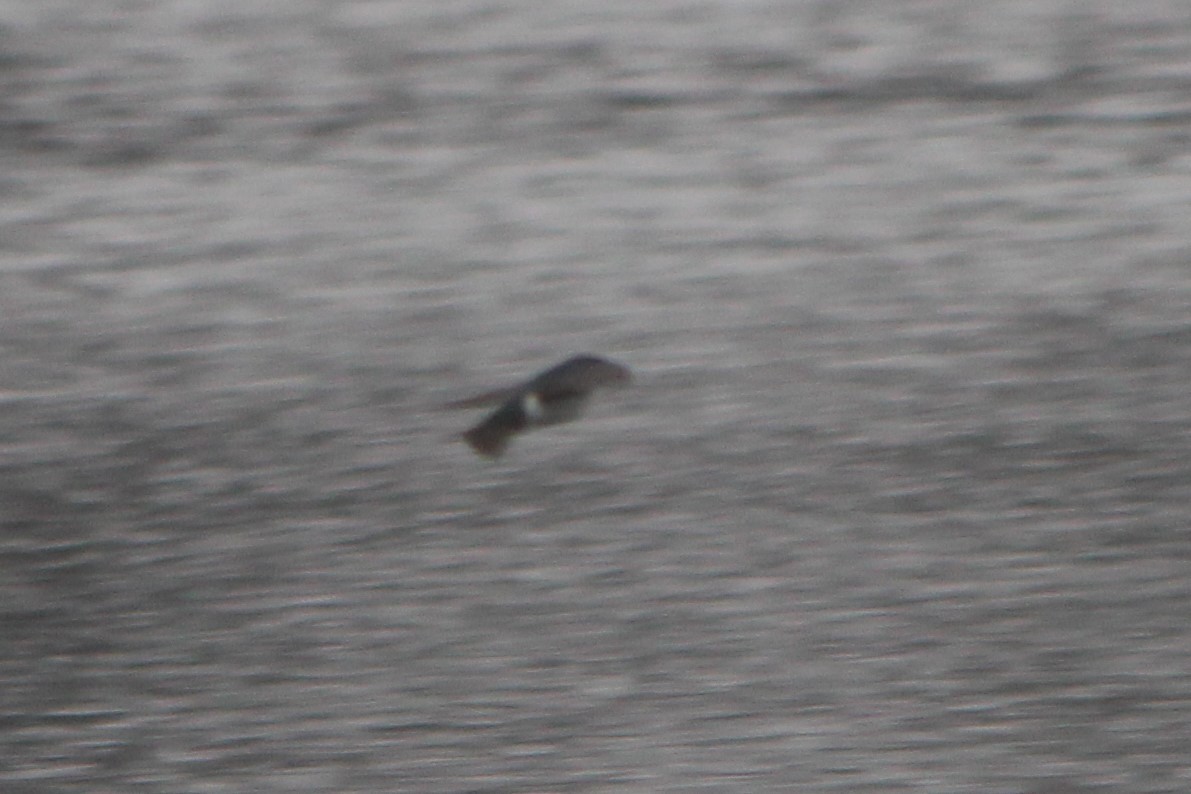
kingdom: Animalia
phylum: Chordata
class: Aves
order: Passeriformes
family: Hirundinidae
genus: Tachycineta
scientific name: Tachycineta bicolor
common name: Tree swallow
